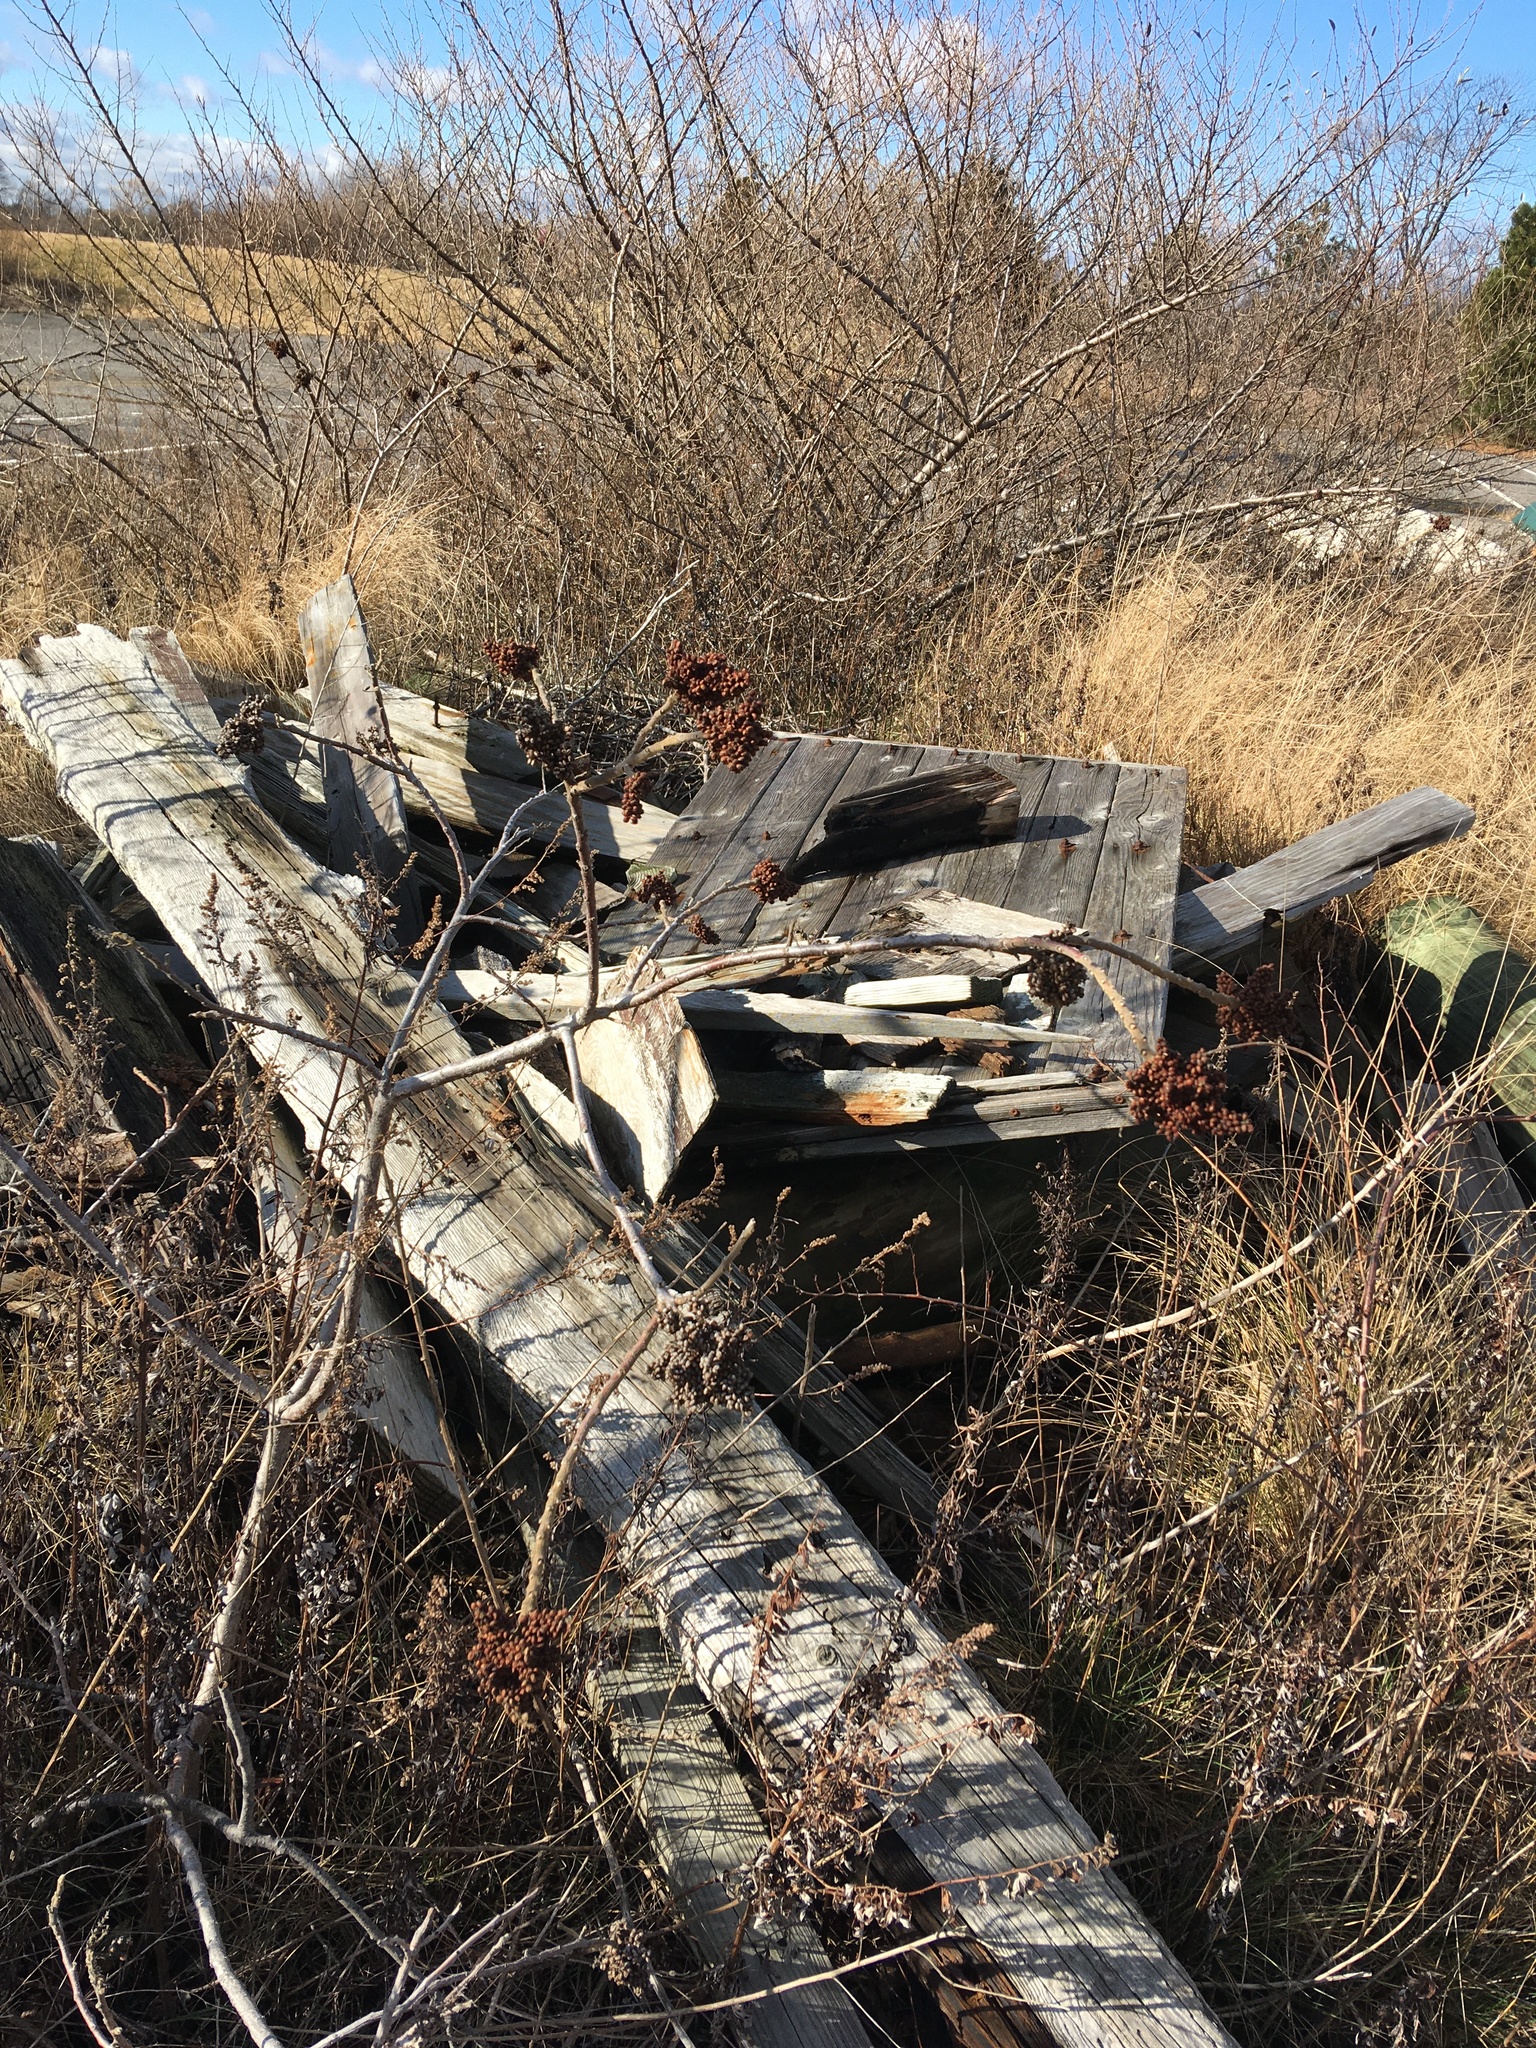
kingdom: Plantae
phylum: Tracheophyta
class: Magnoliopsida
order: Sapindales
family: Anacardiaceae
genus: Rhus
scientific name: Rhus copallina
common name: Shining sumac
